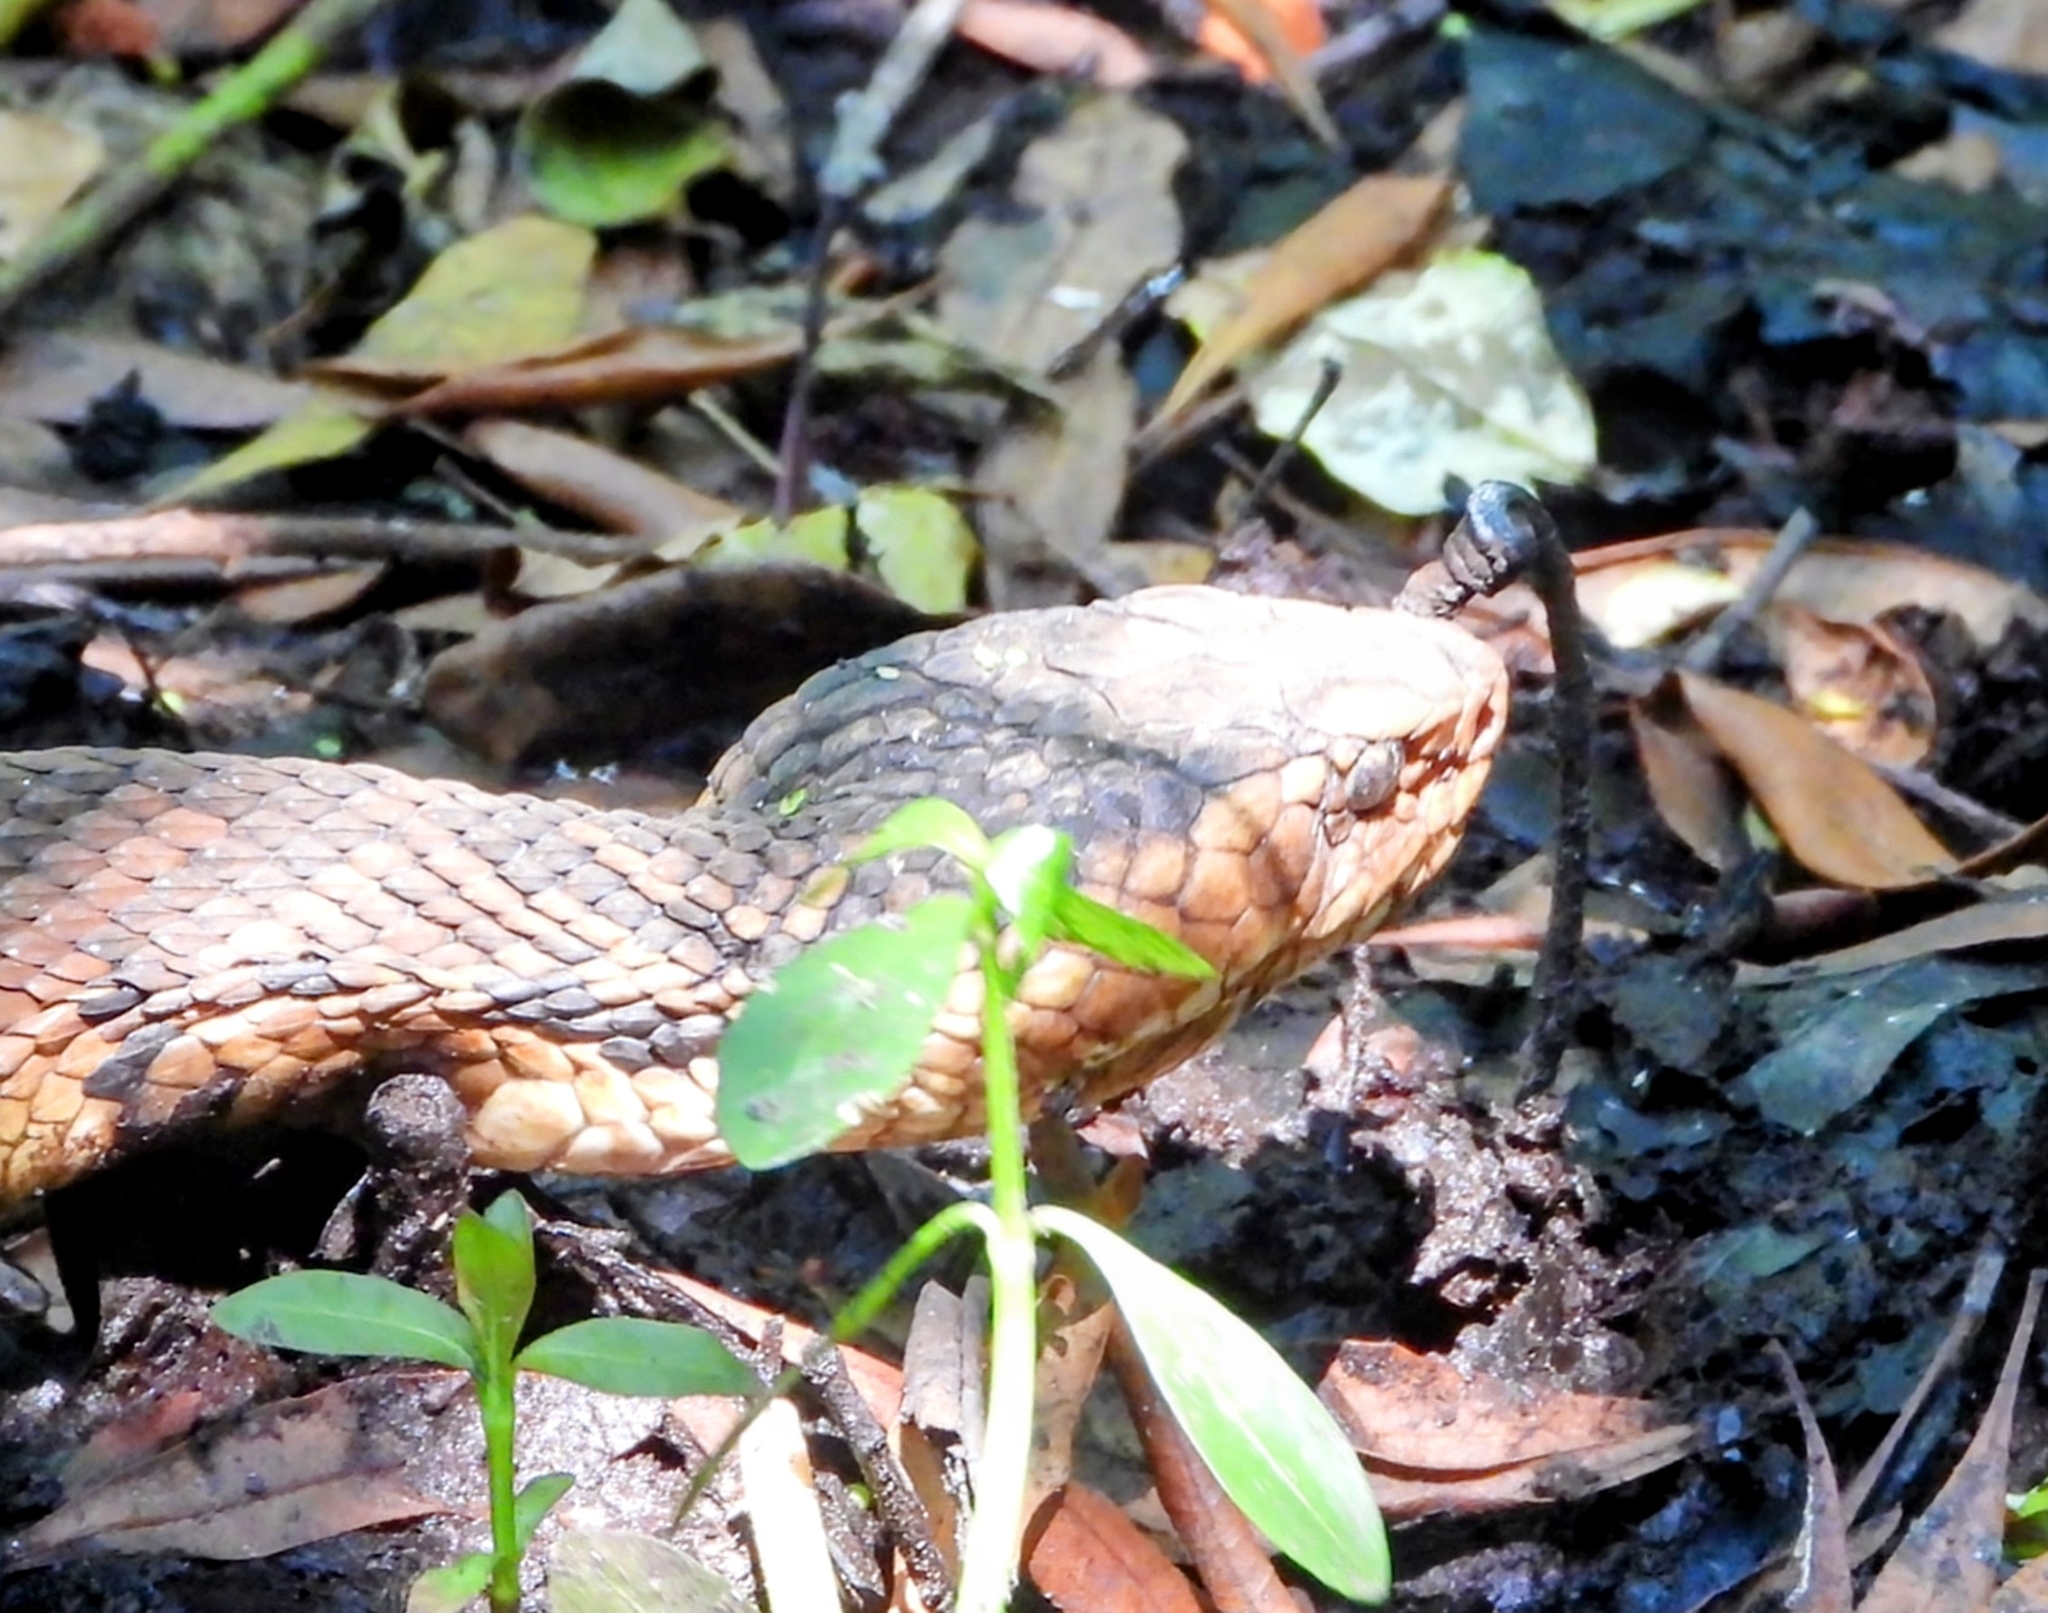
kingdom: Animalia
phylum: Chordata
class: Squamata
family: Viperidae
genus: Agkistrodon
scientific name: Agkistrodon piscivorus
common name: Cottonmouth
